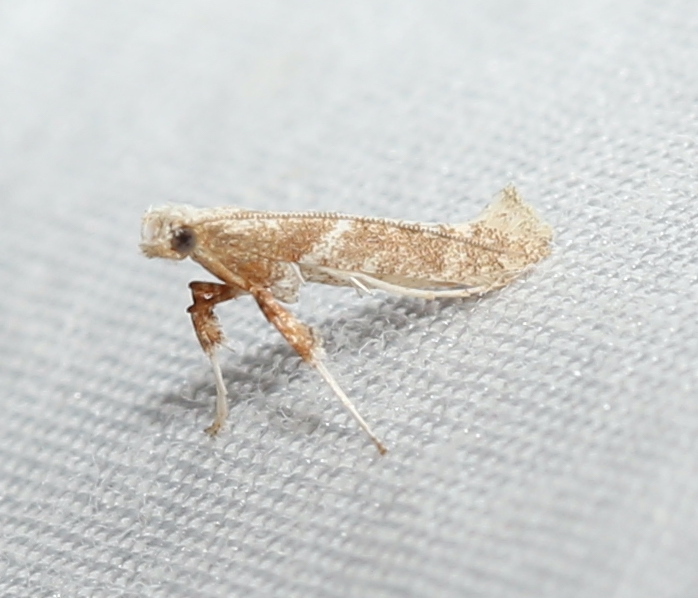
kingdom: Animalia
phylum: Arthropoda
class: Insecta
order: Lepidoptera
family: Gracillariidae
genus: Povolnya
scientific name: Povolnya quercinigrella
